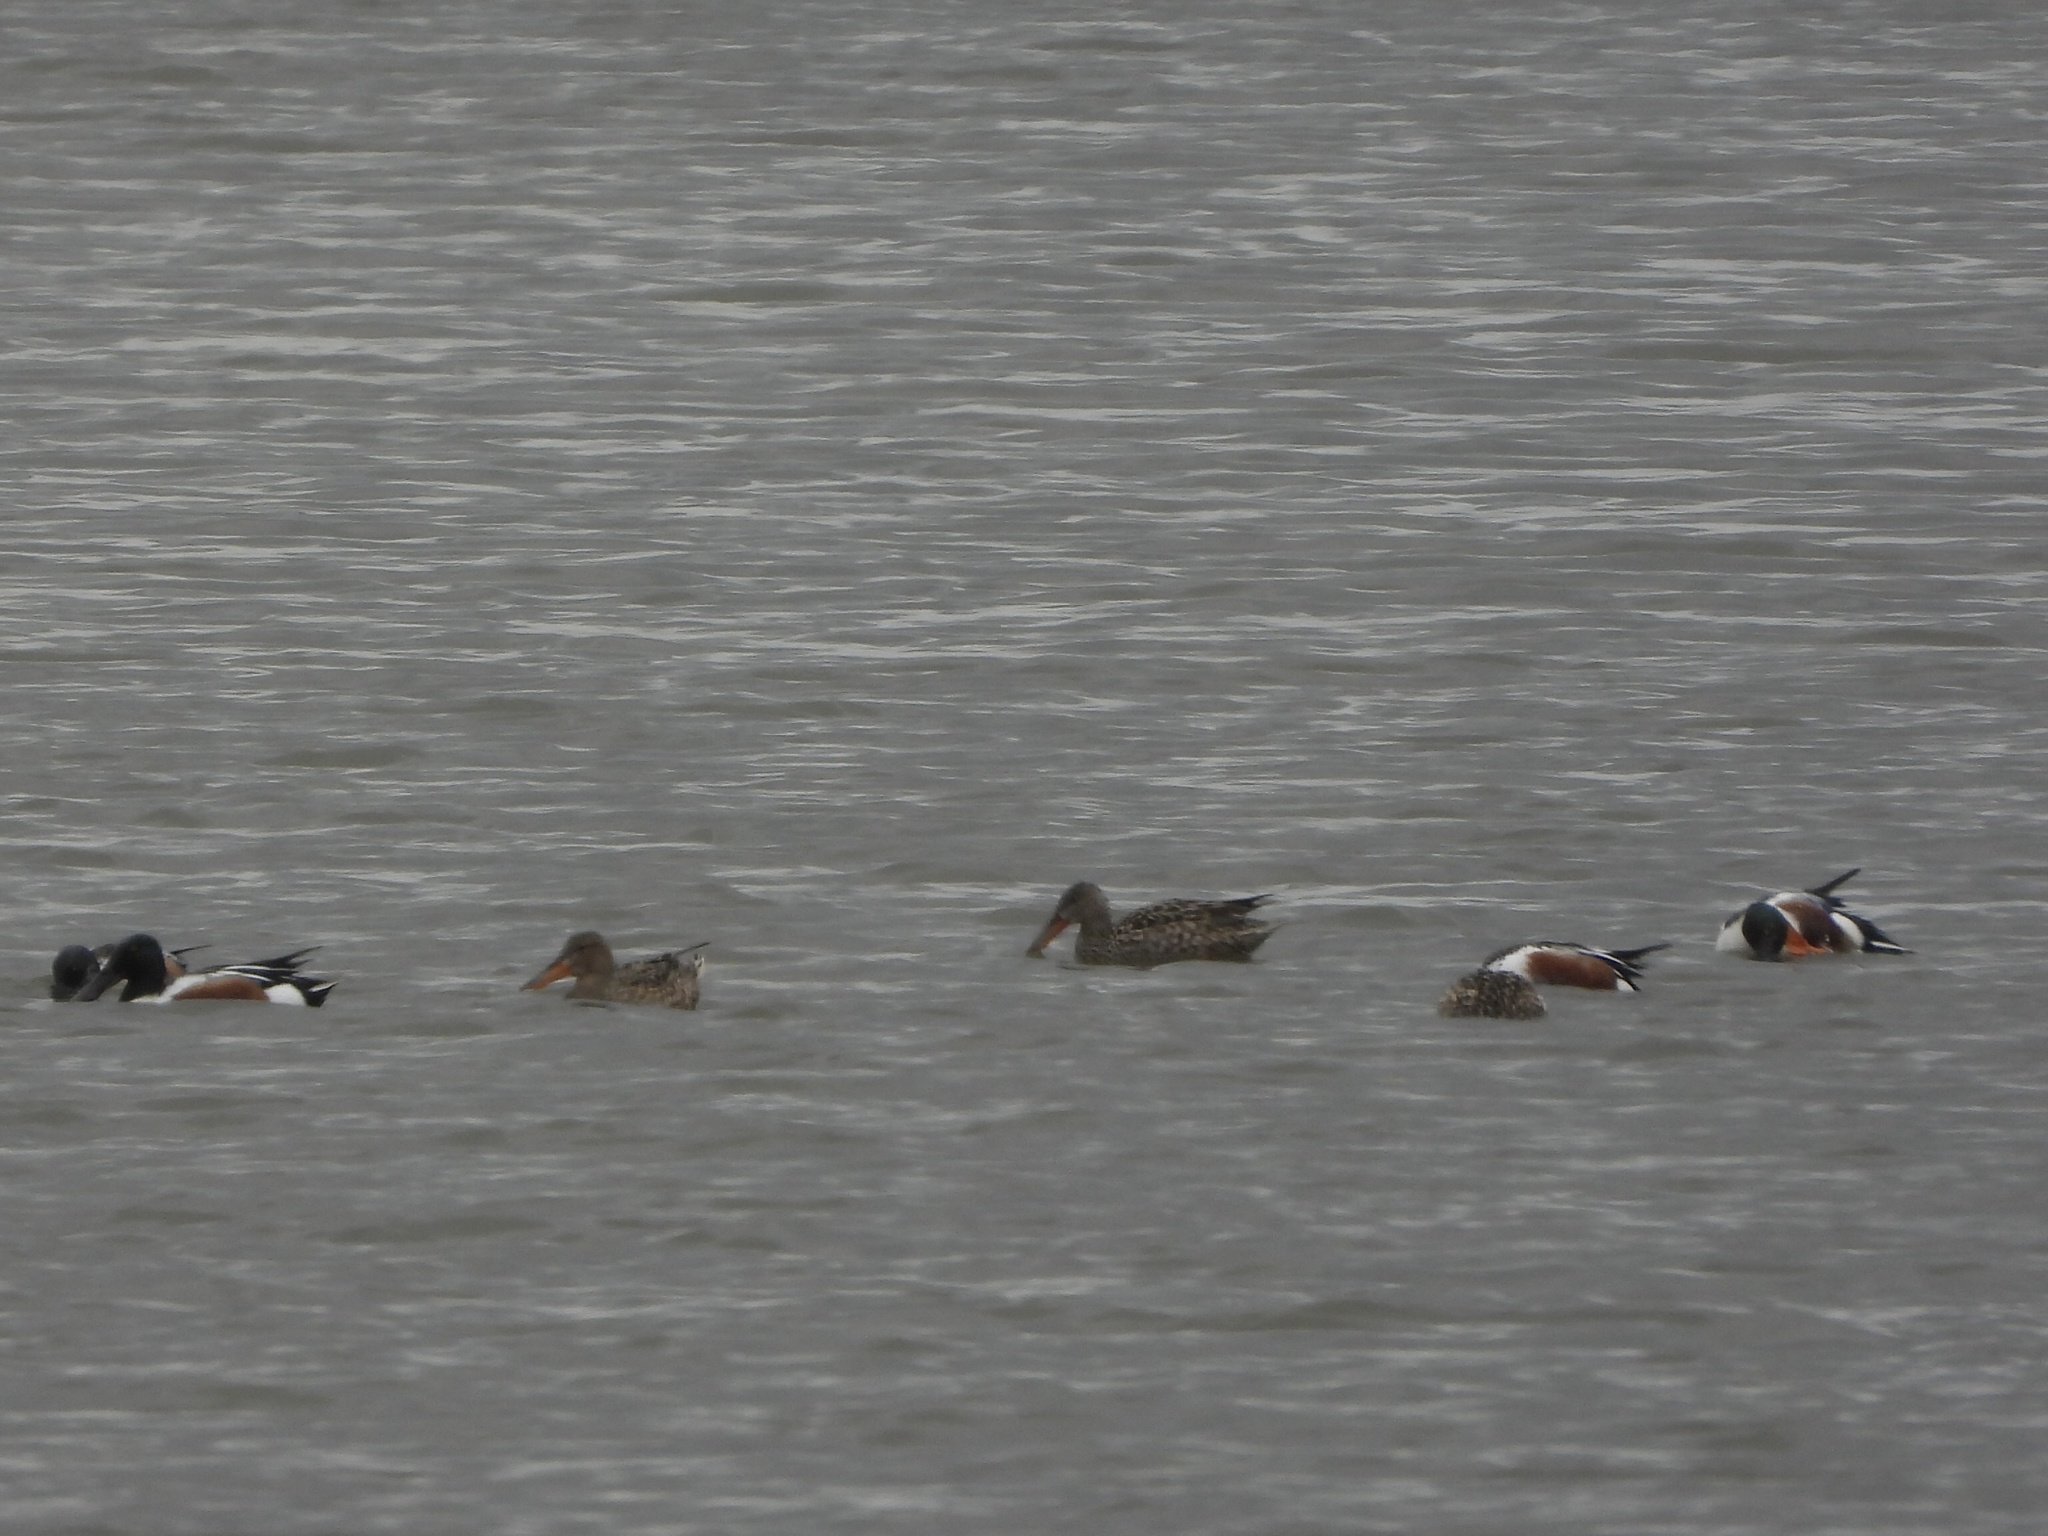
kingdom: Animalia
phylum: Chordata
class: Aves
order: Anseriformes
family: Anatidae
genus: Spatula
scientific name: Spatula clypeata
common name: Northern shoveler
